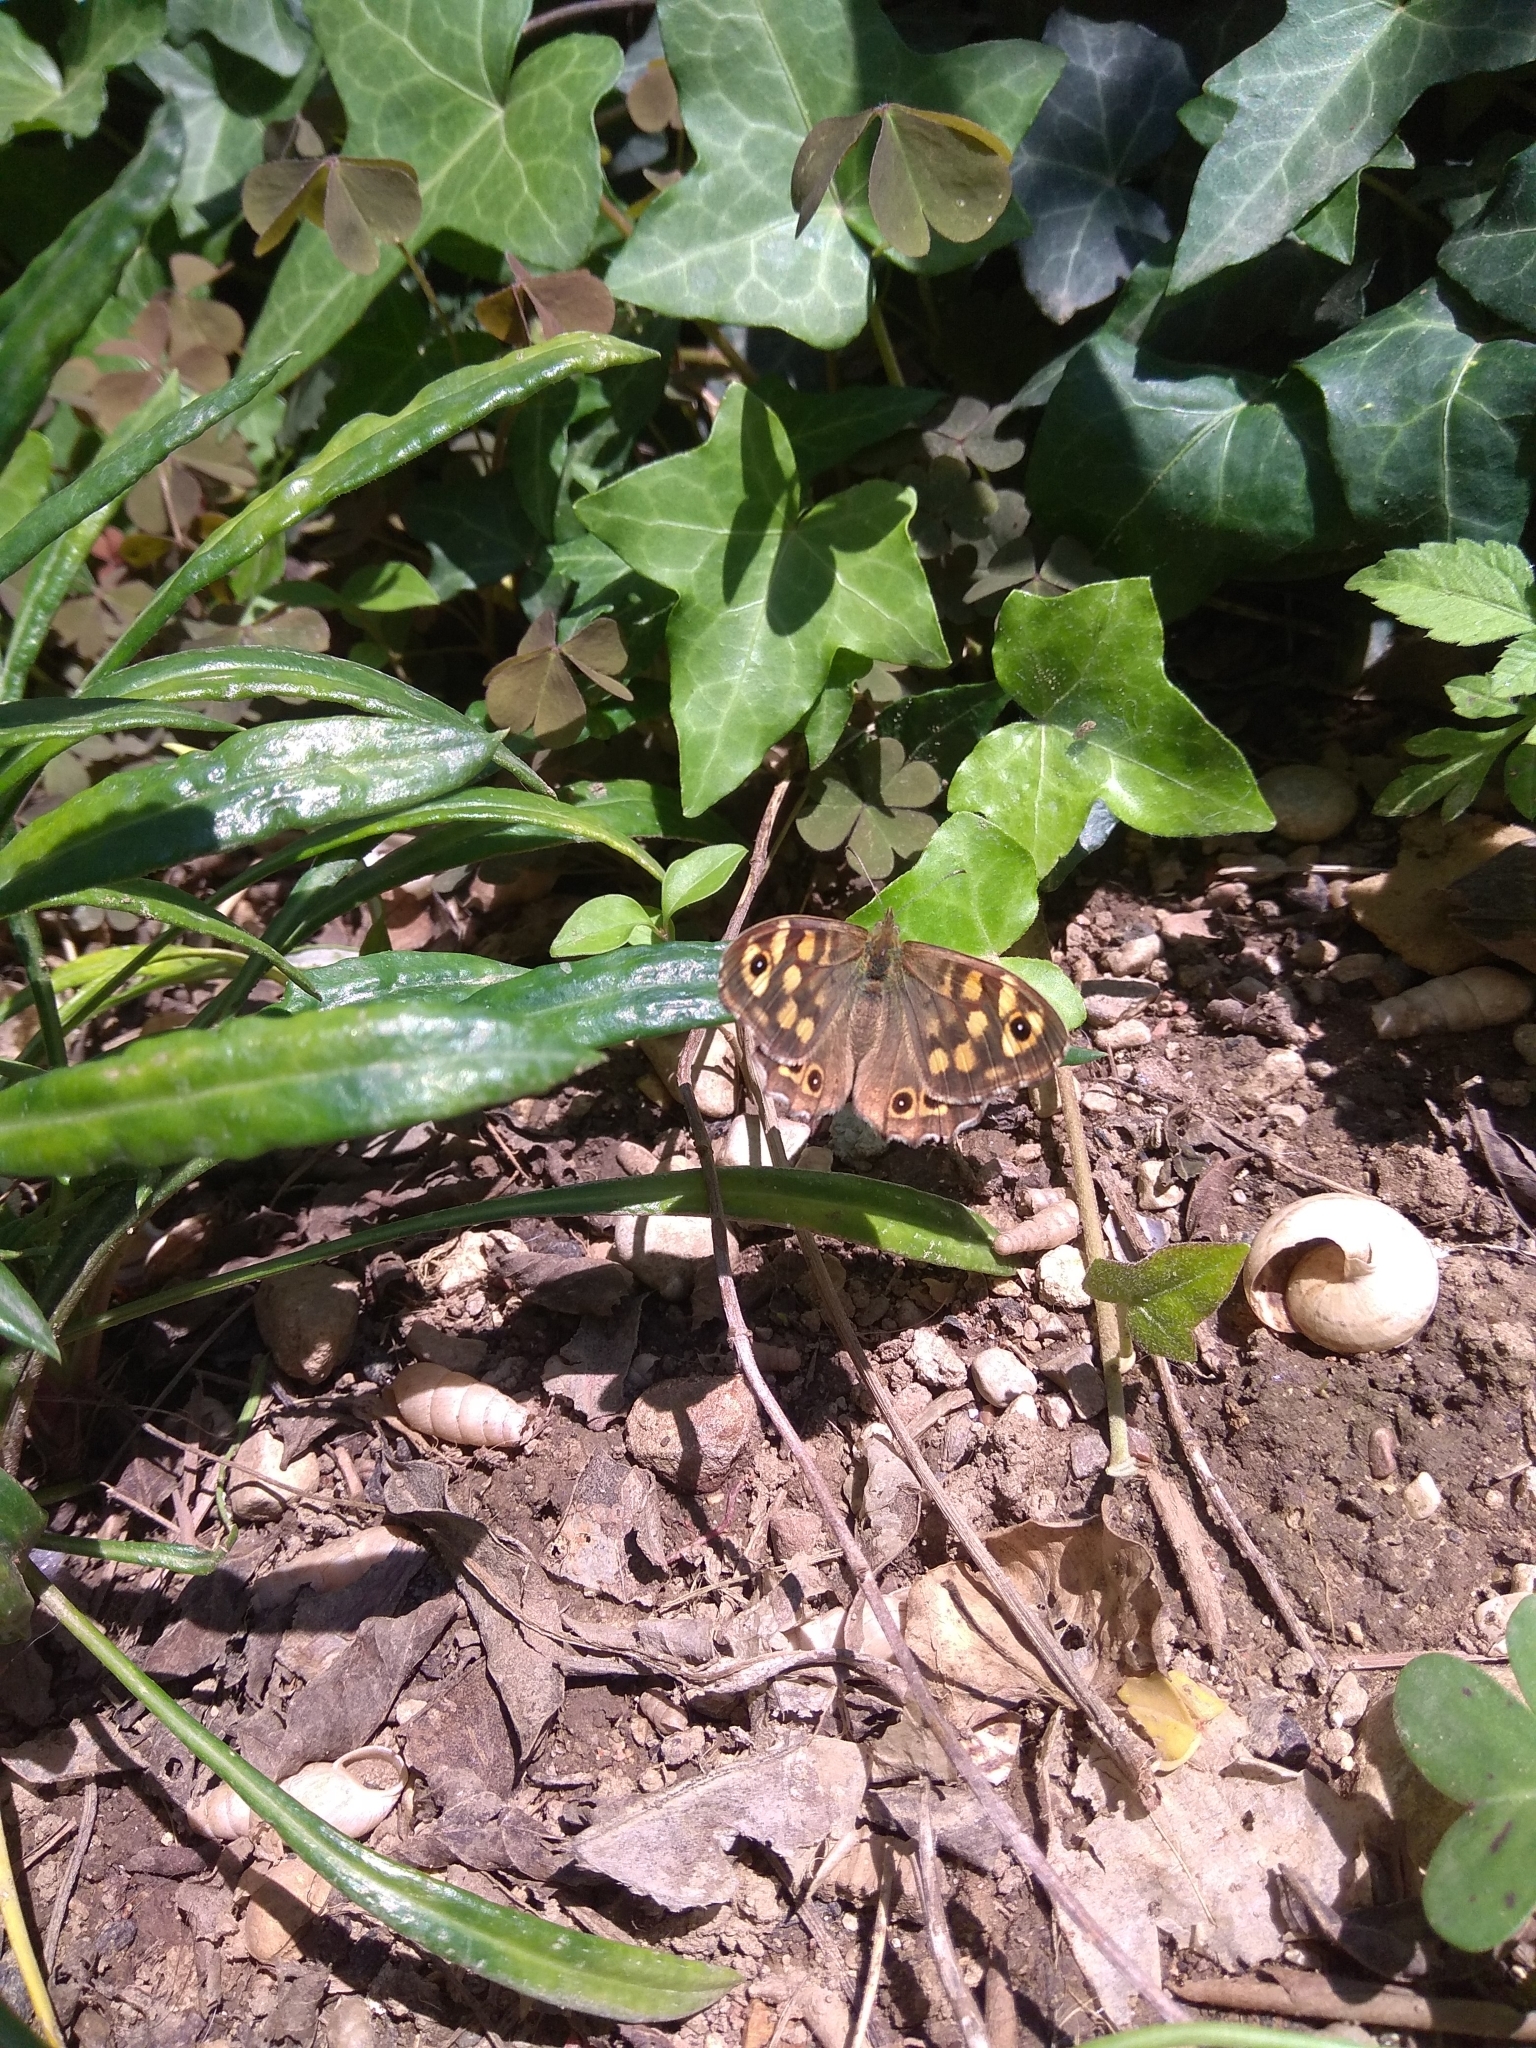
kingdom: Animalia
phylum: Arthropoda
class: Insecta
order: Lepidoptera
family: Nymphalidae
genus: Pararge
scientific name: Pararge aegeria
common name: Speckled wood
